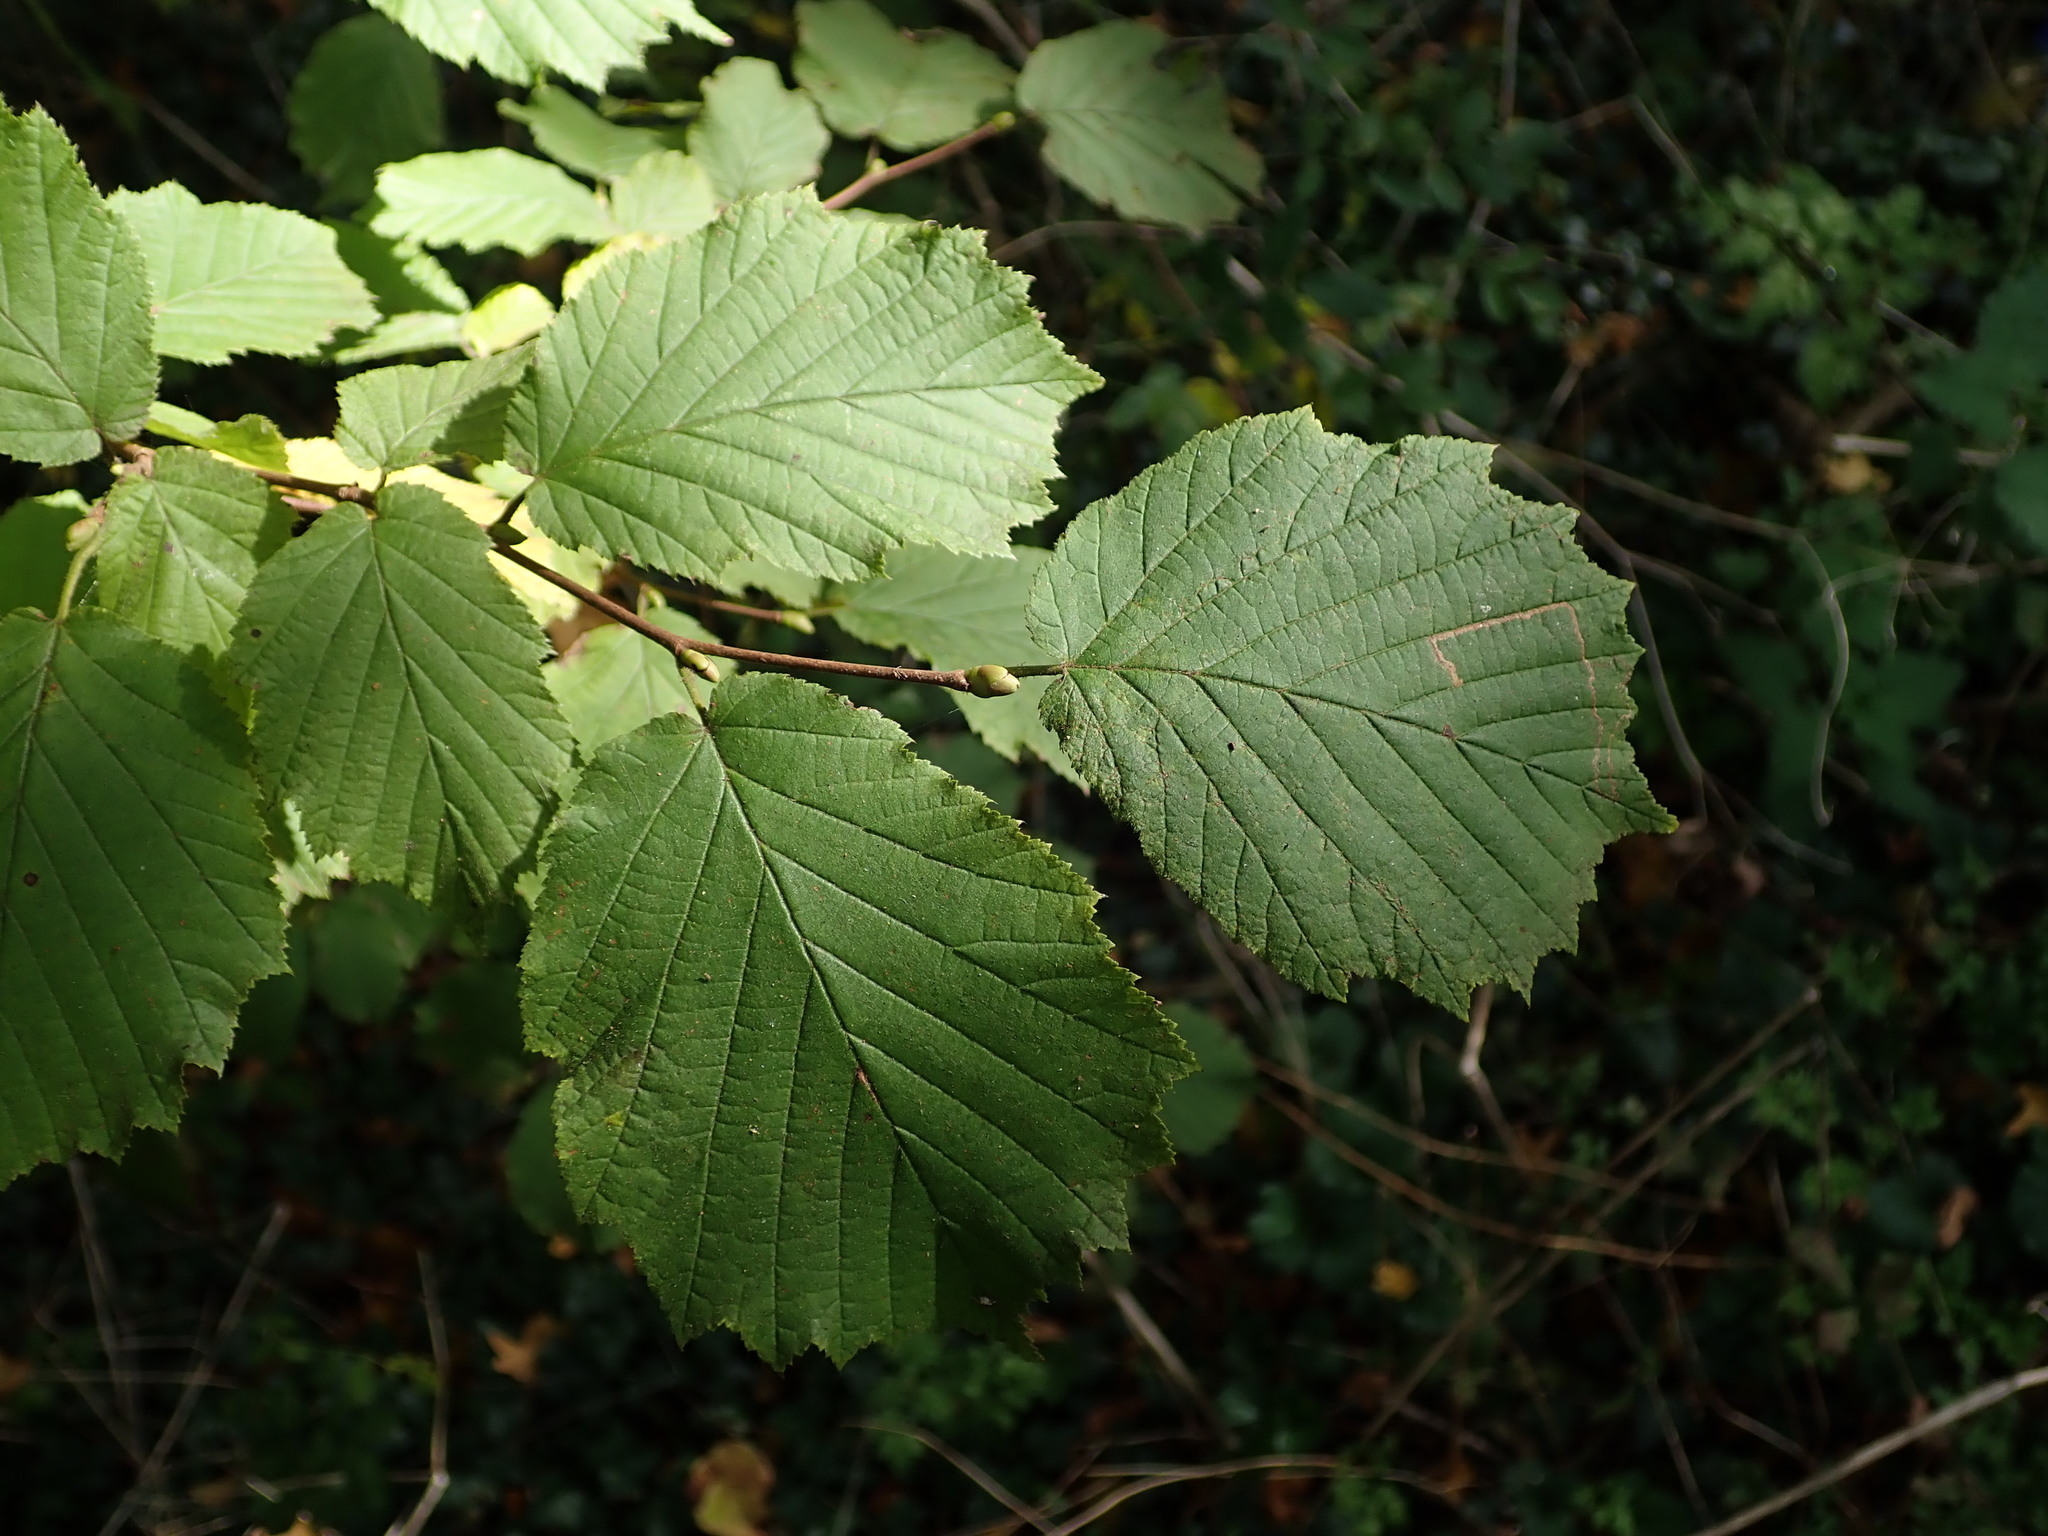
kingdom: Plantae
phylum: Tracheophyta
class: Magnoliopsida
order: Fagales
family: Betulaceae
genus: Corylus
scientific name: Corylus avellana
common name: European hazel
